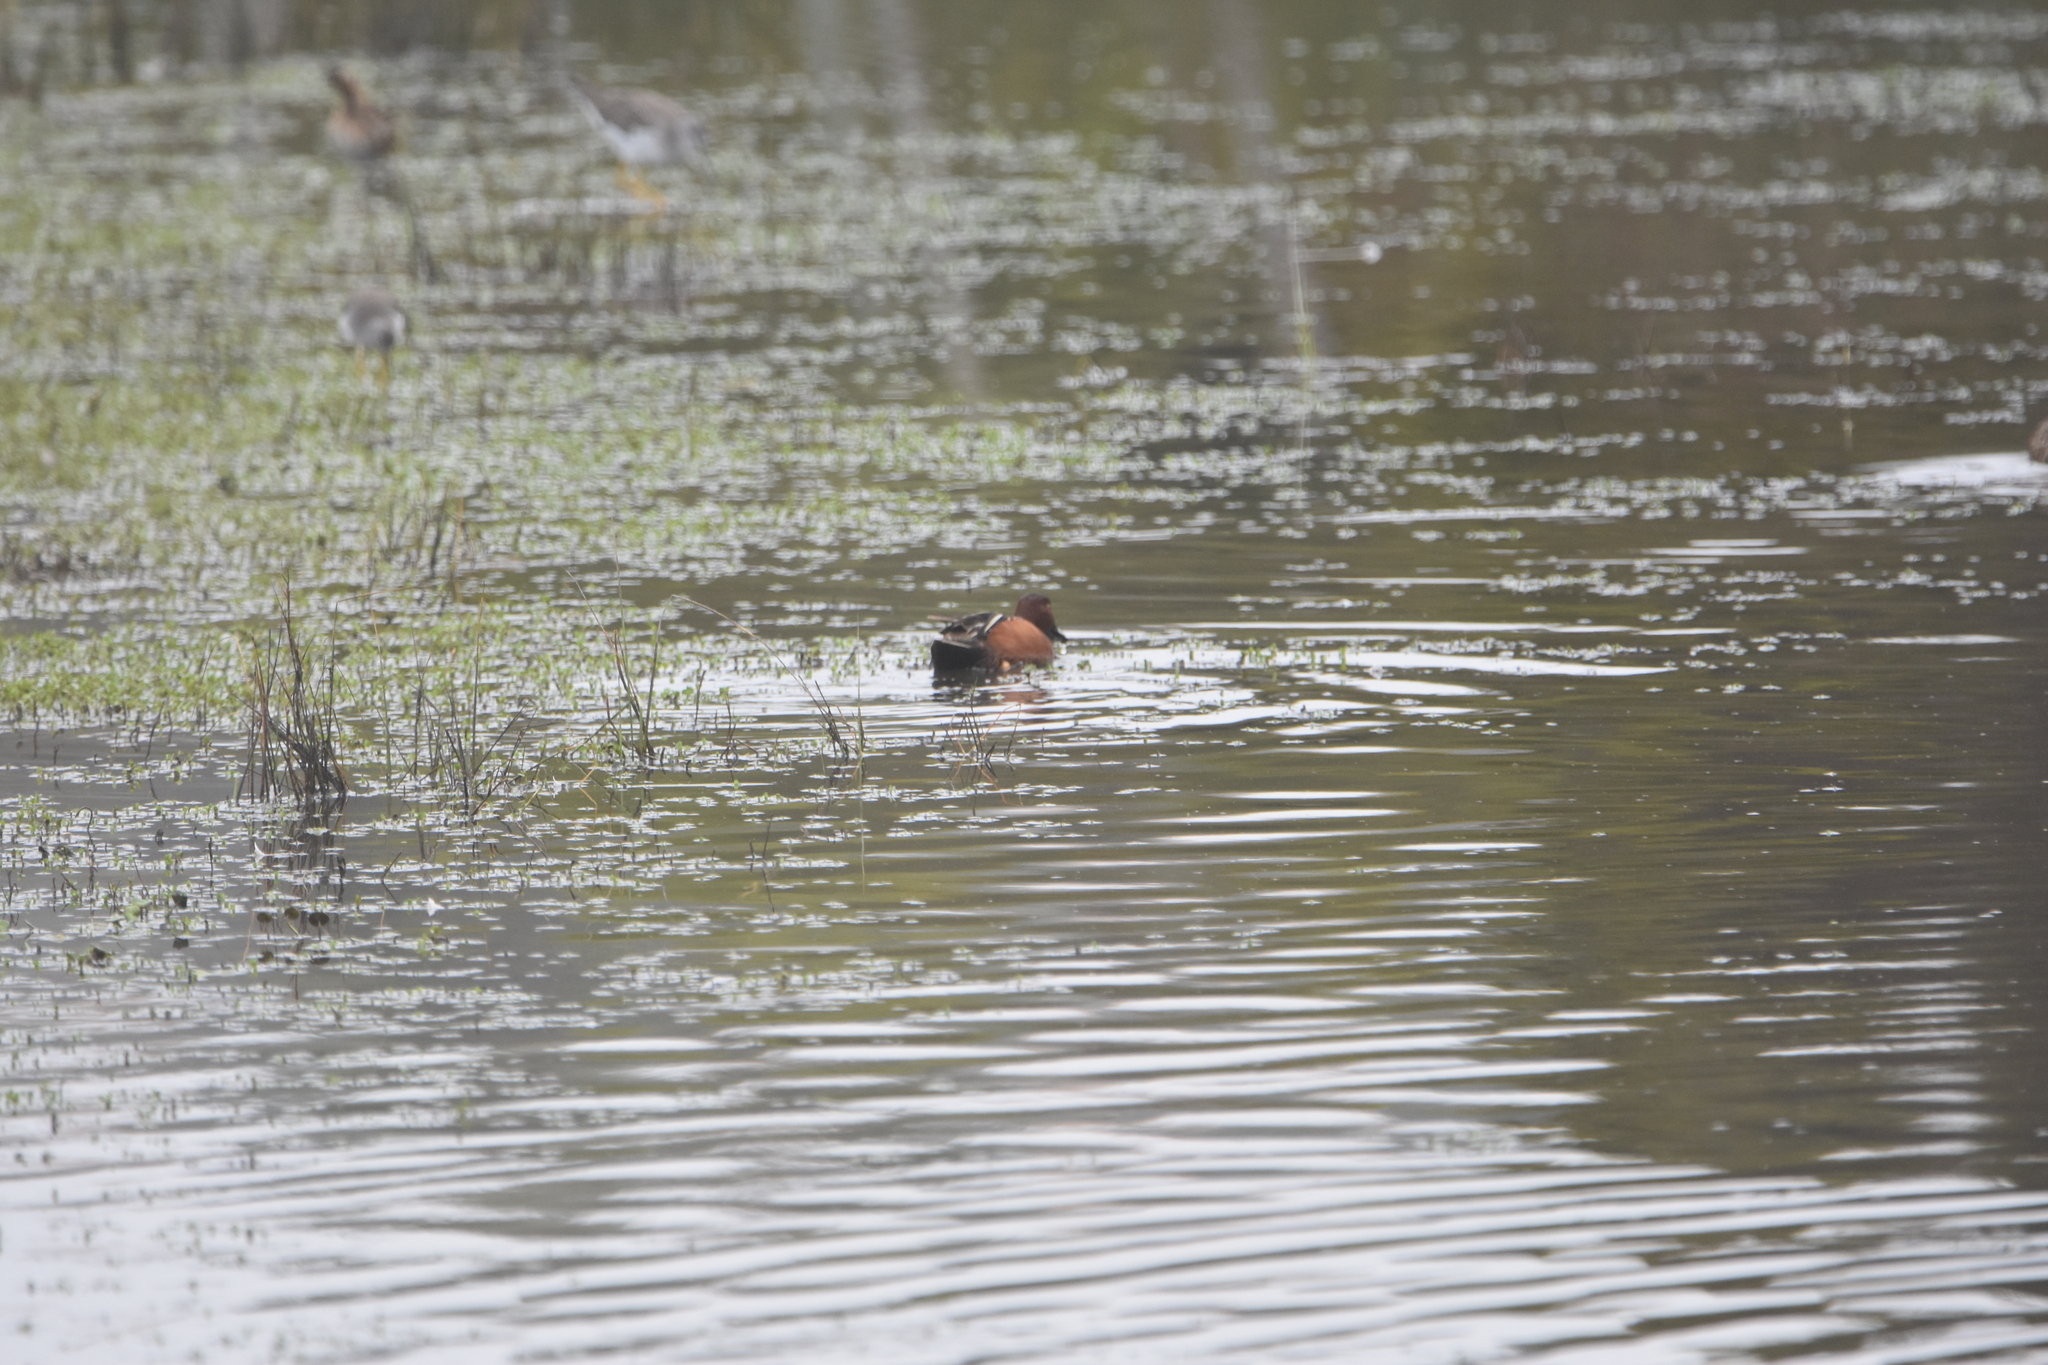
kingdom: Animalia
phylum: Chordata
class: Aves
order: Anseriformes
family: Anatidae
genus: Spatula
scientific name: Spatula cyanoptera
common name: Cinnamon teal
